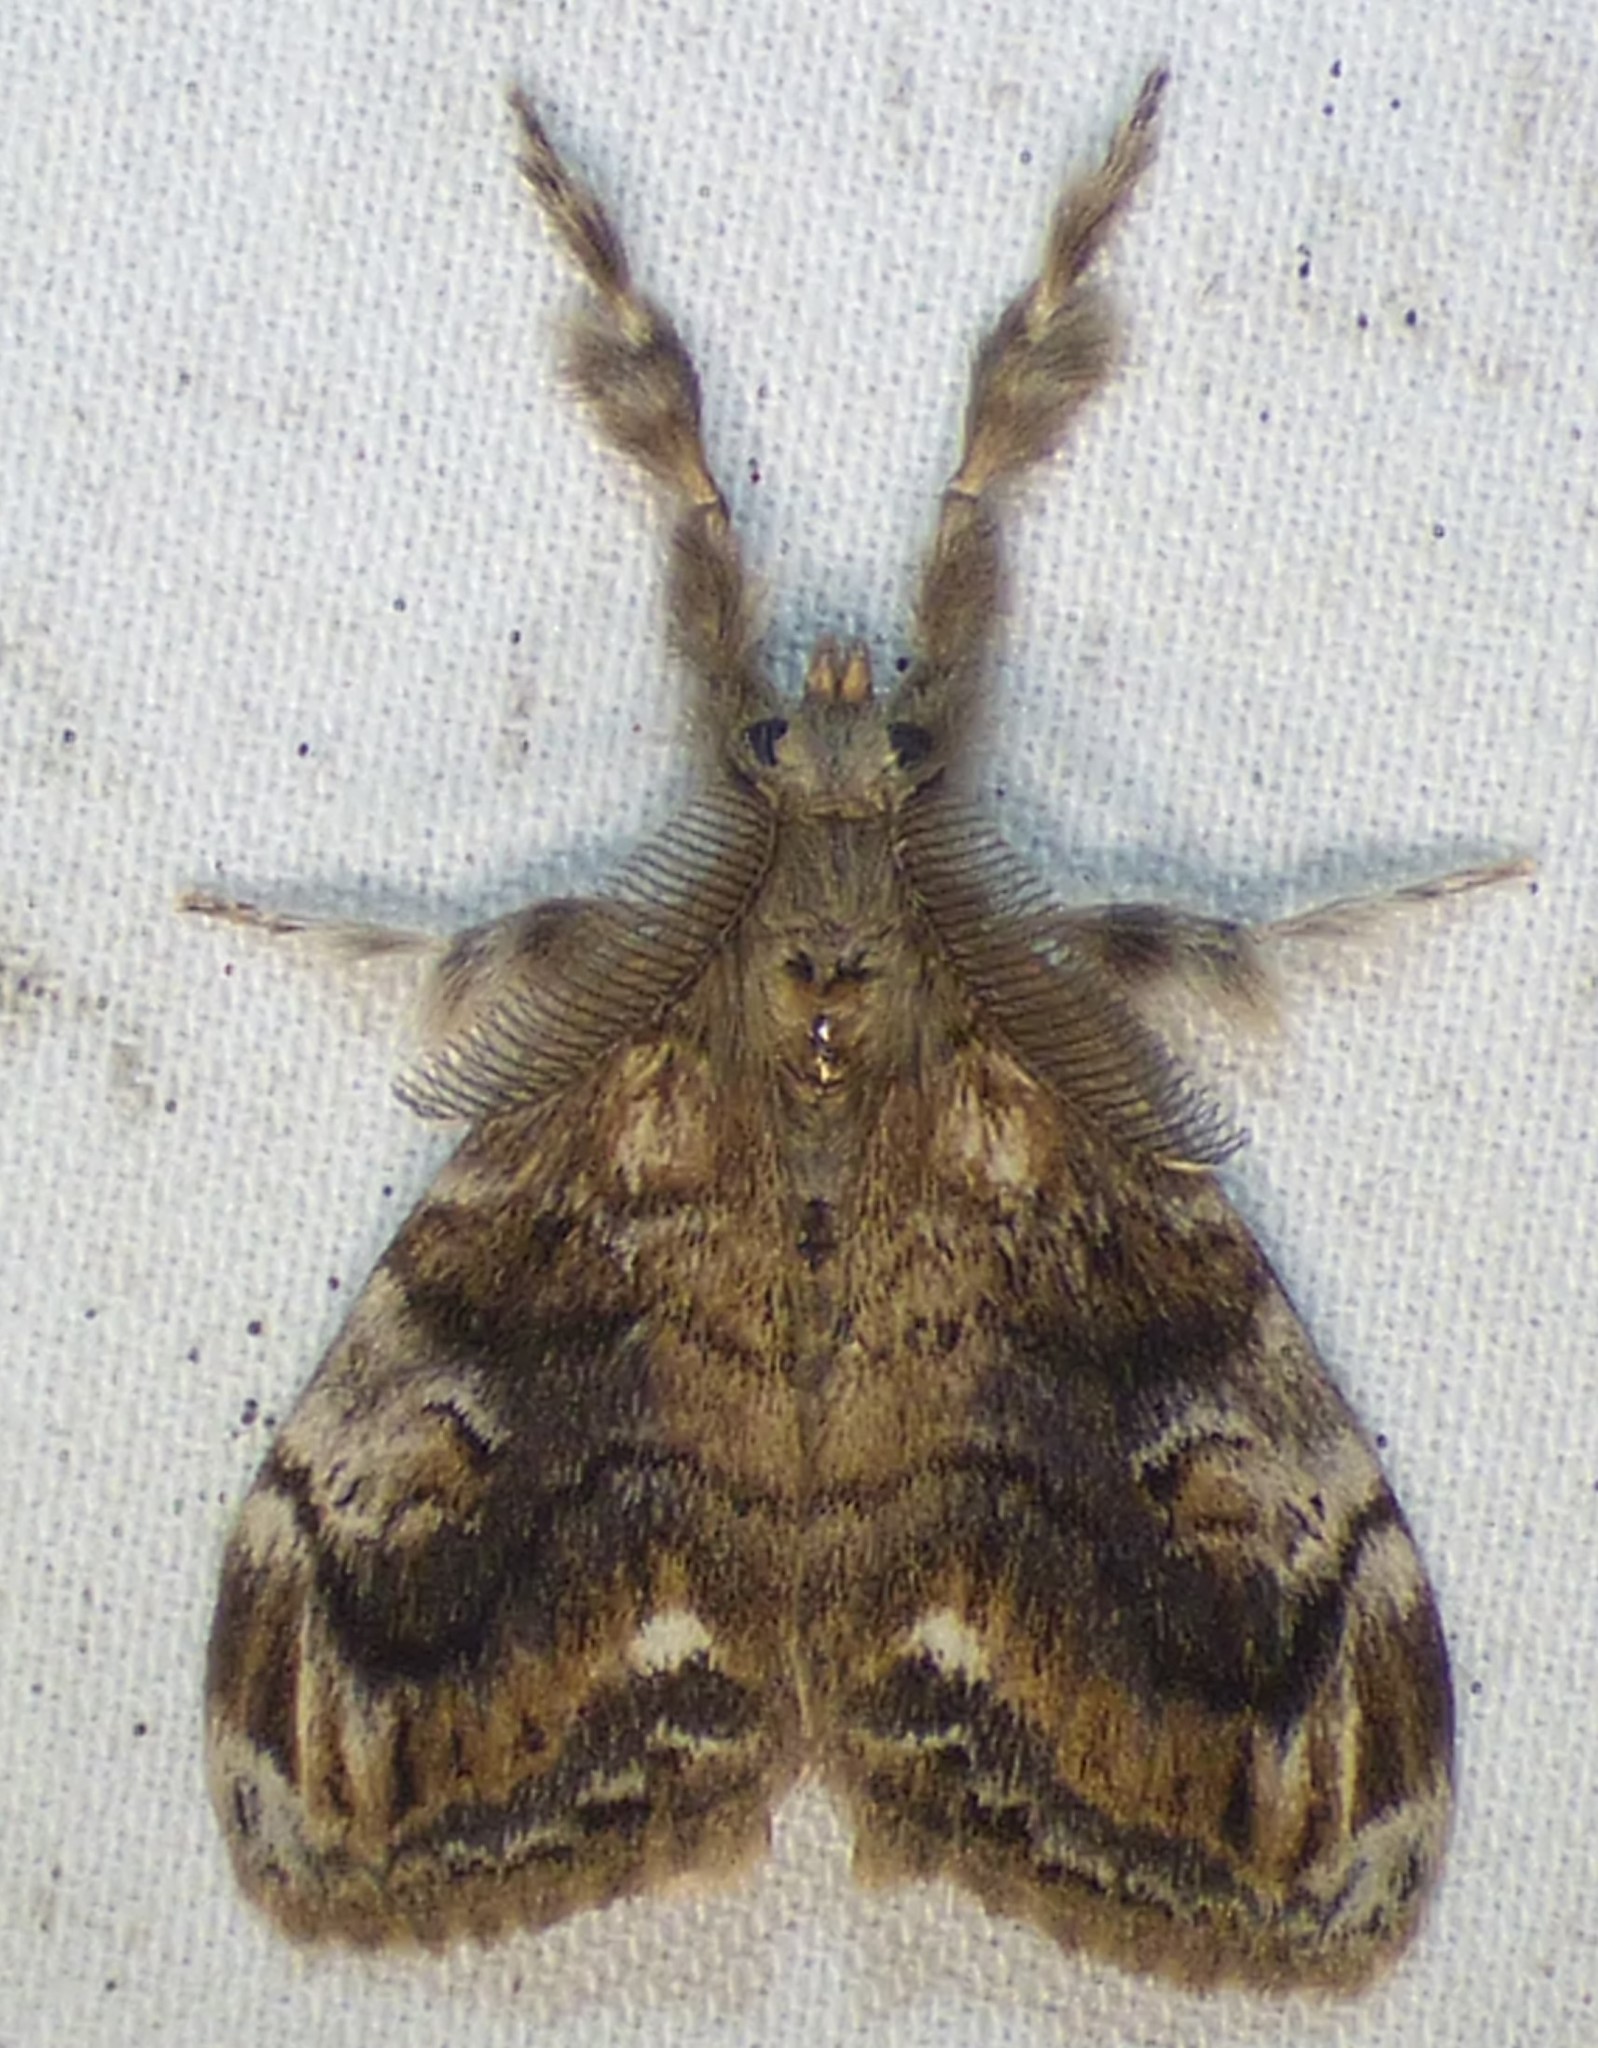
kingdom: Animalia
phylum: Arthropoda
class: Insecta
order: Lepidoptera
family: Erebidae
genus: Orgyia
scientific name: Orgyia definita
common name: Definite tussock moth
